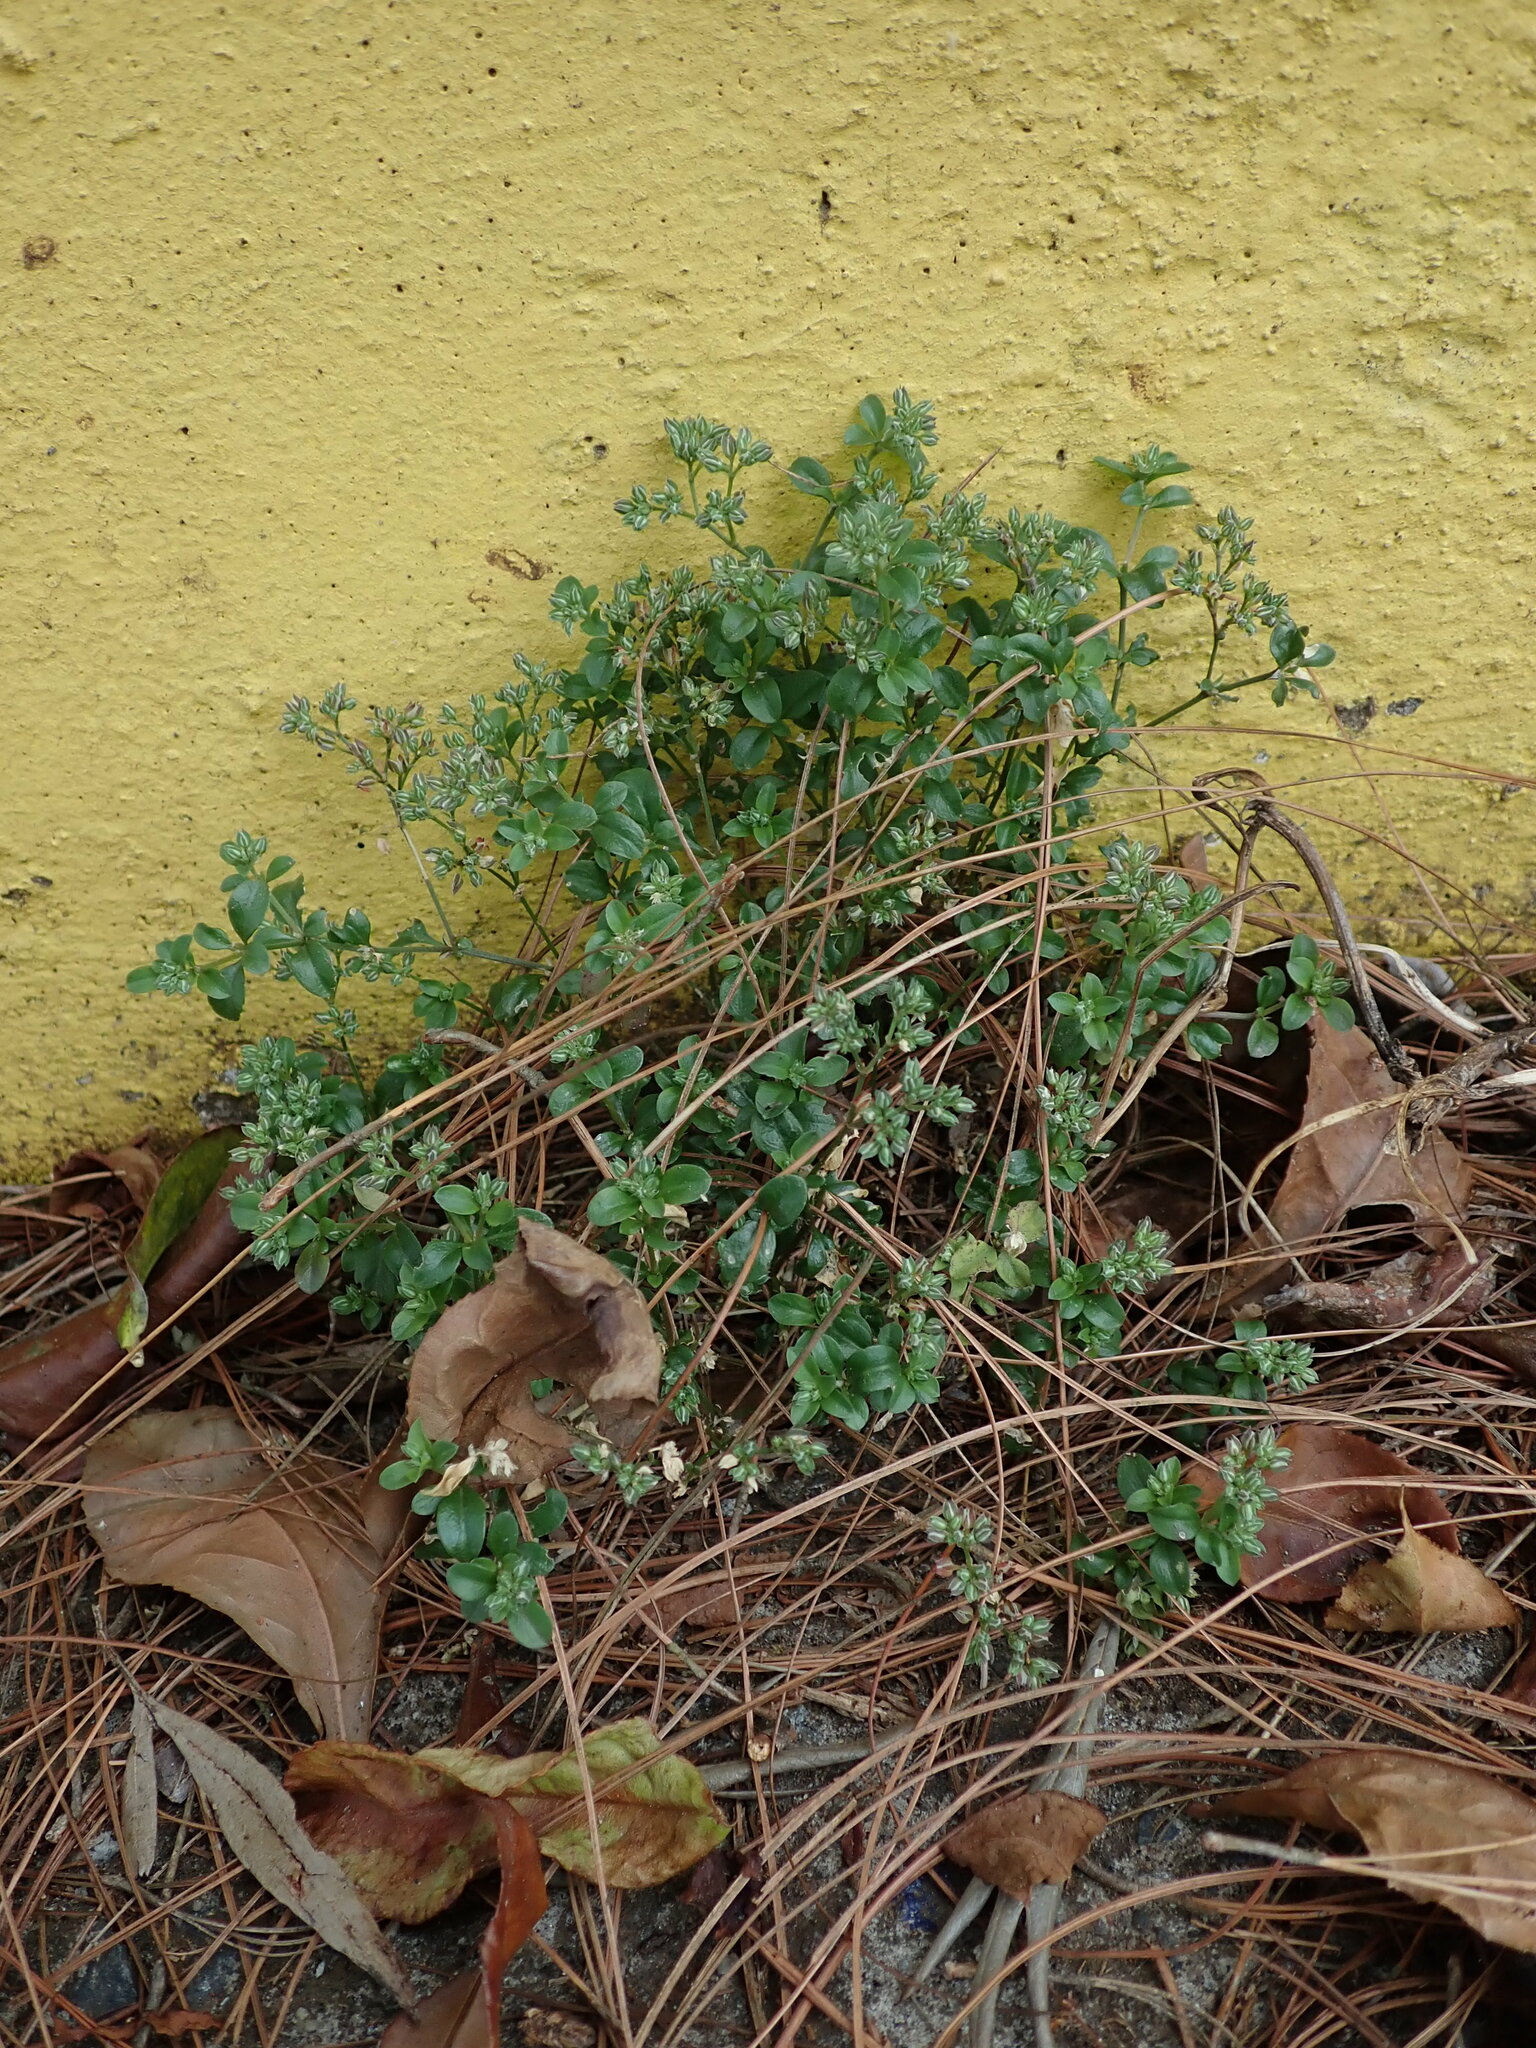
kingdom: Plantae
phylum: Tracheophyta
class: Magnoliopsida
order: Caryophyllales
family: Caryophyllaceae
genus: Polycarpon
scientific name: Polycarpon tetraphyllum
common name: Four-leaved all-seed
